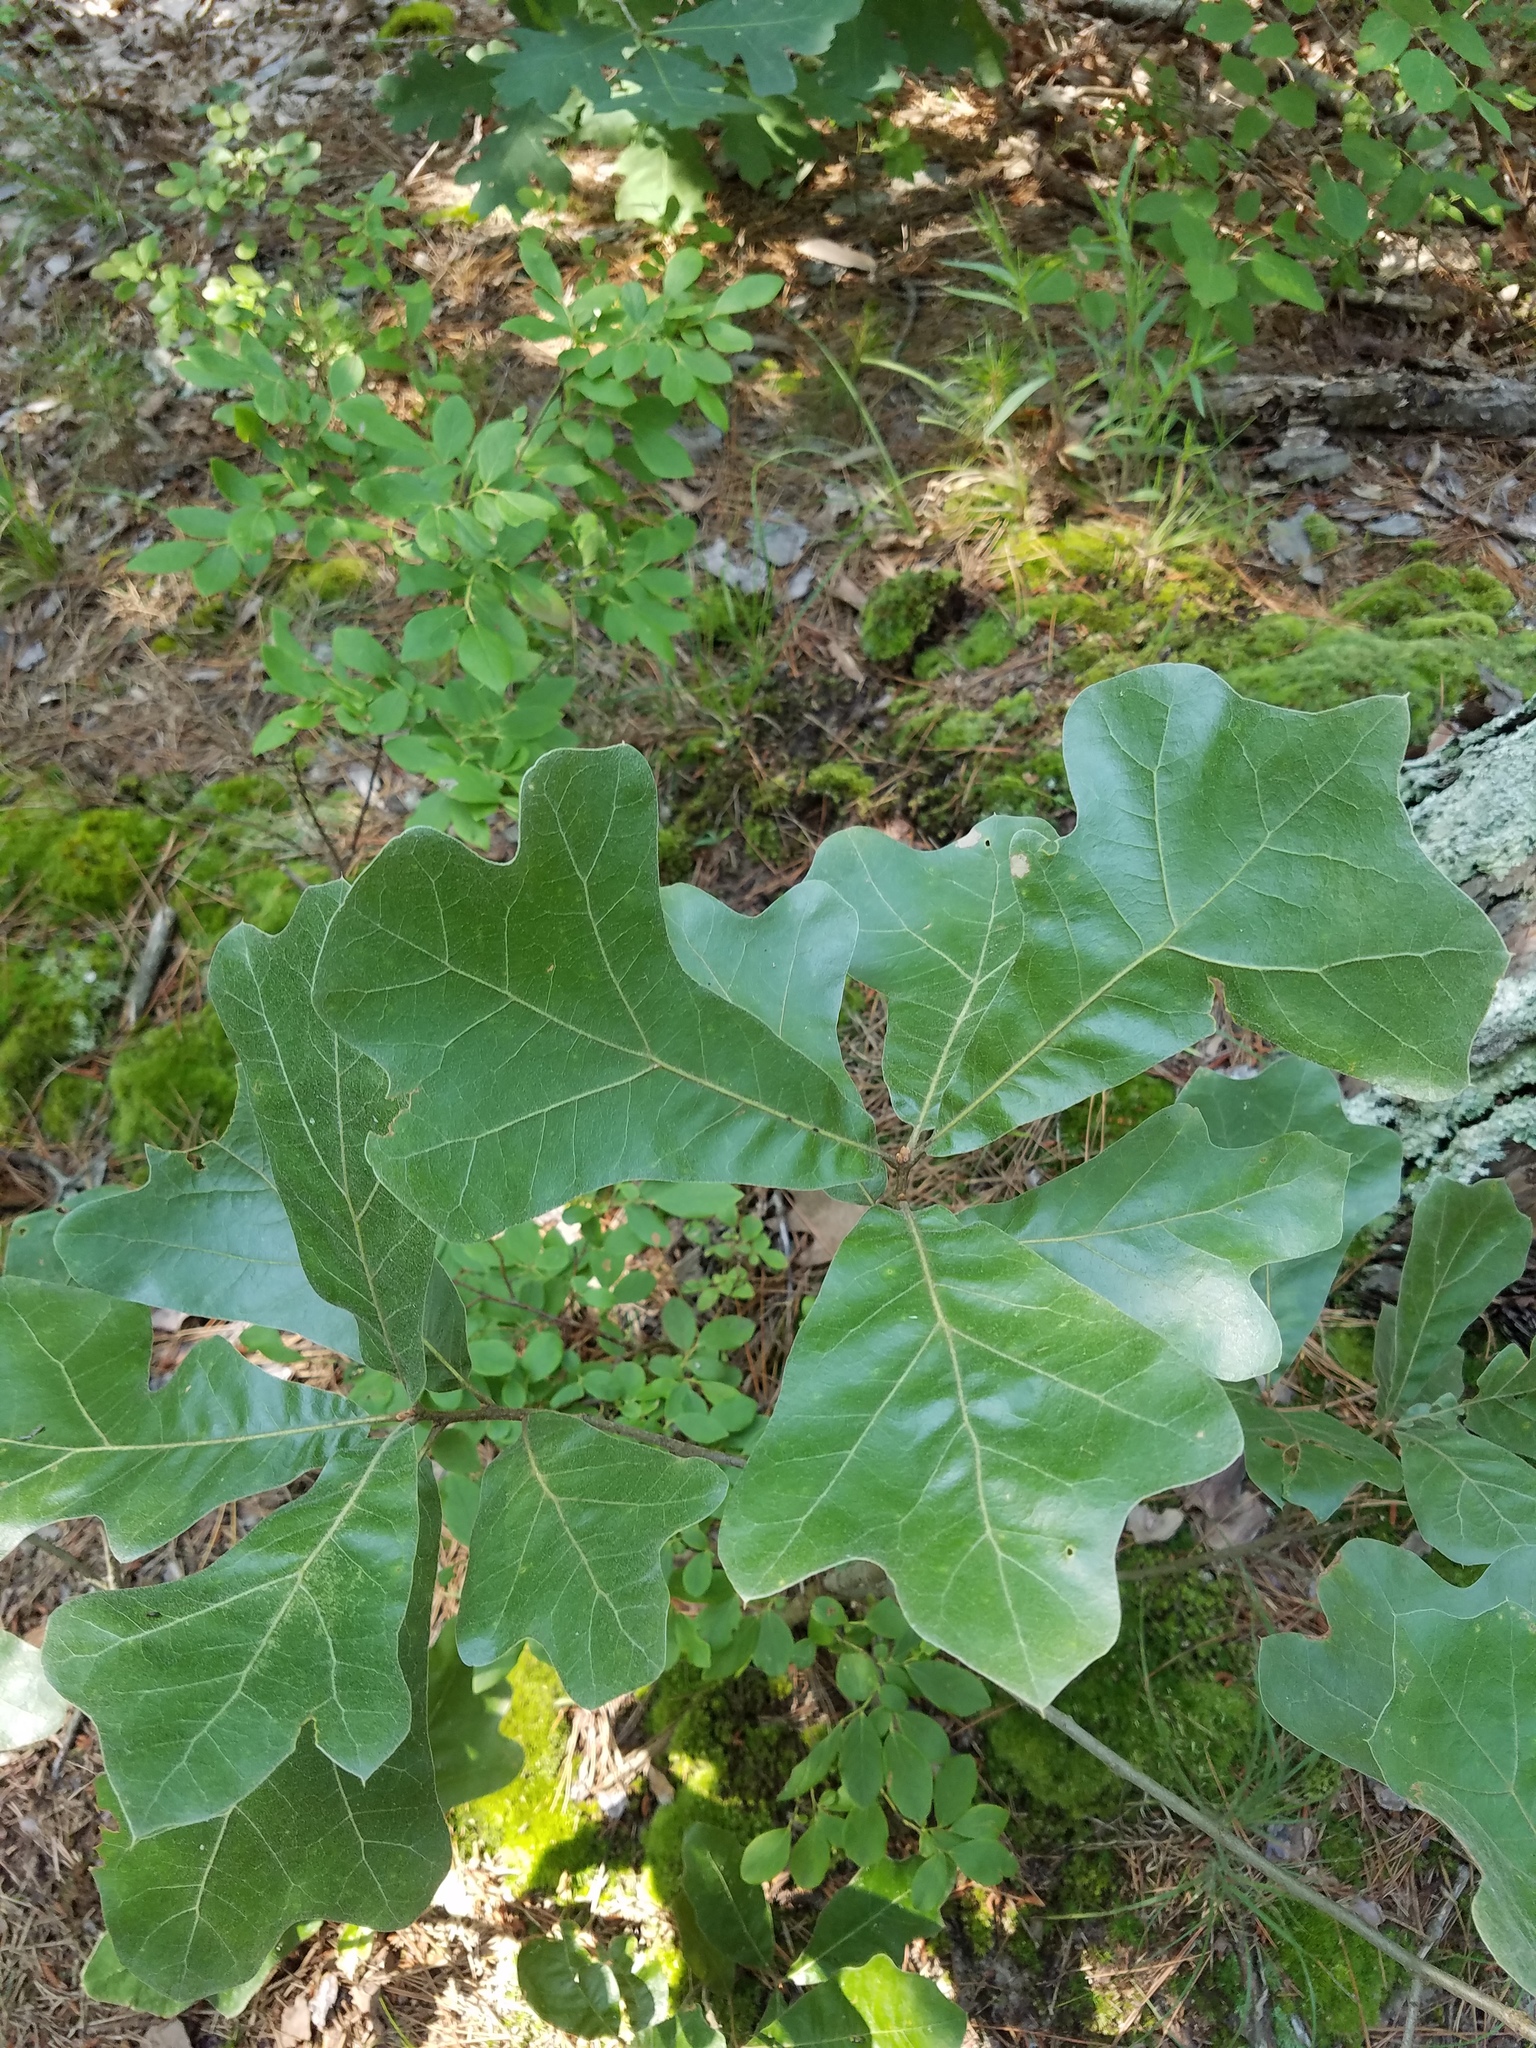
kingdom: Plantae
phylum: Tracheophyta
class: Magnoliopsida
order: Fagales
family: Fagaceae
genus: Quercus
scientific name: Quercus marilandica
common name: Blackjack oak
